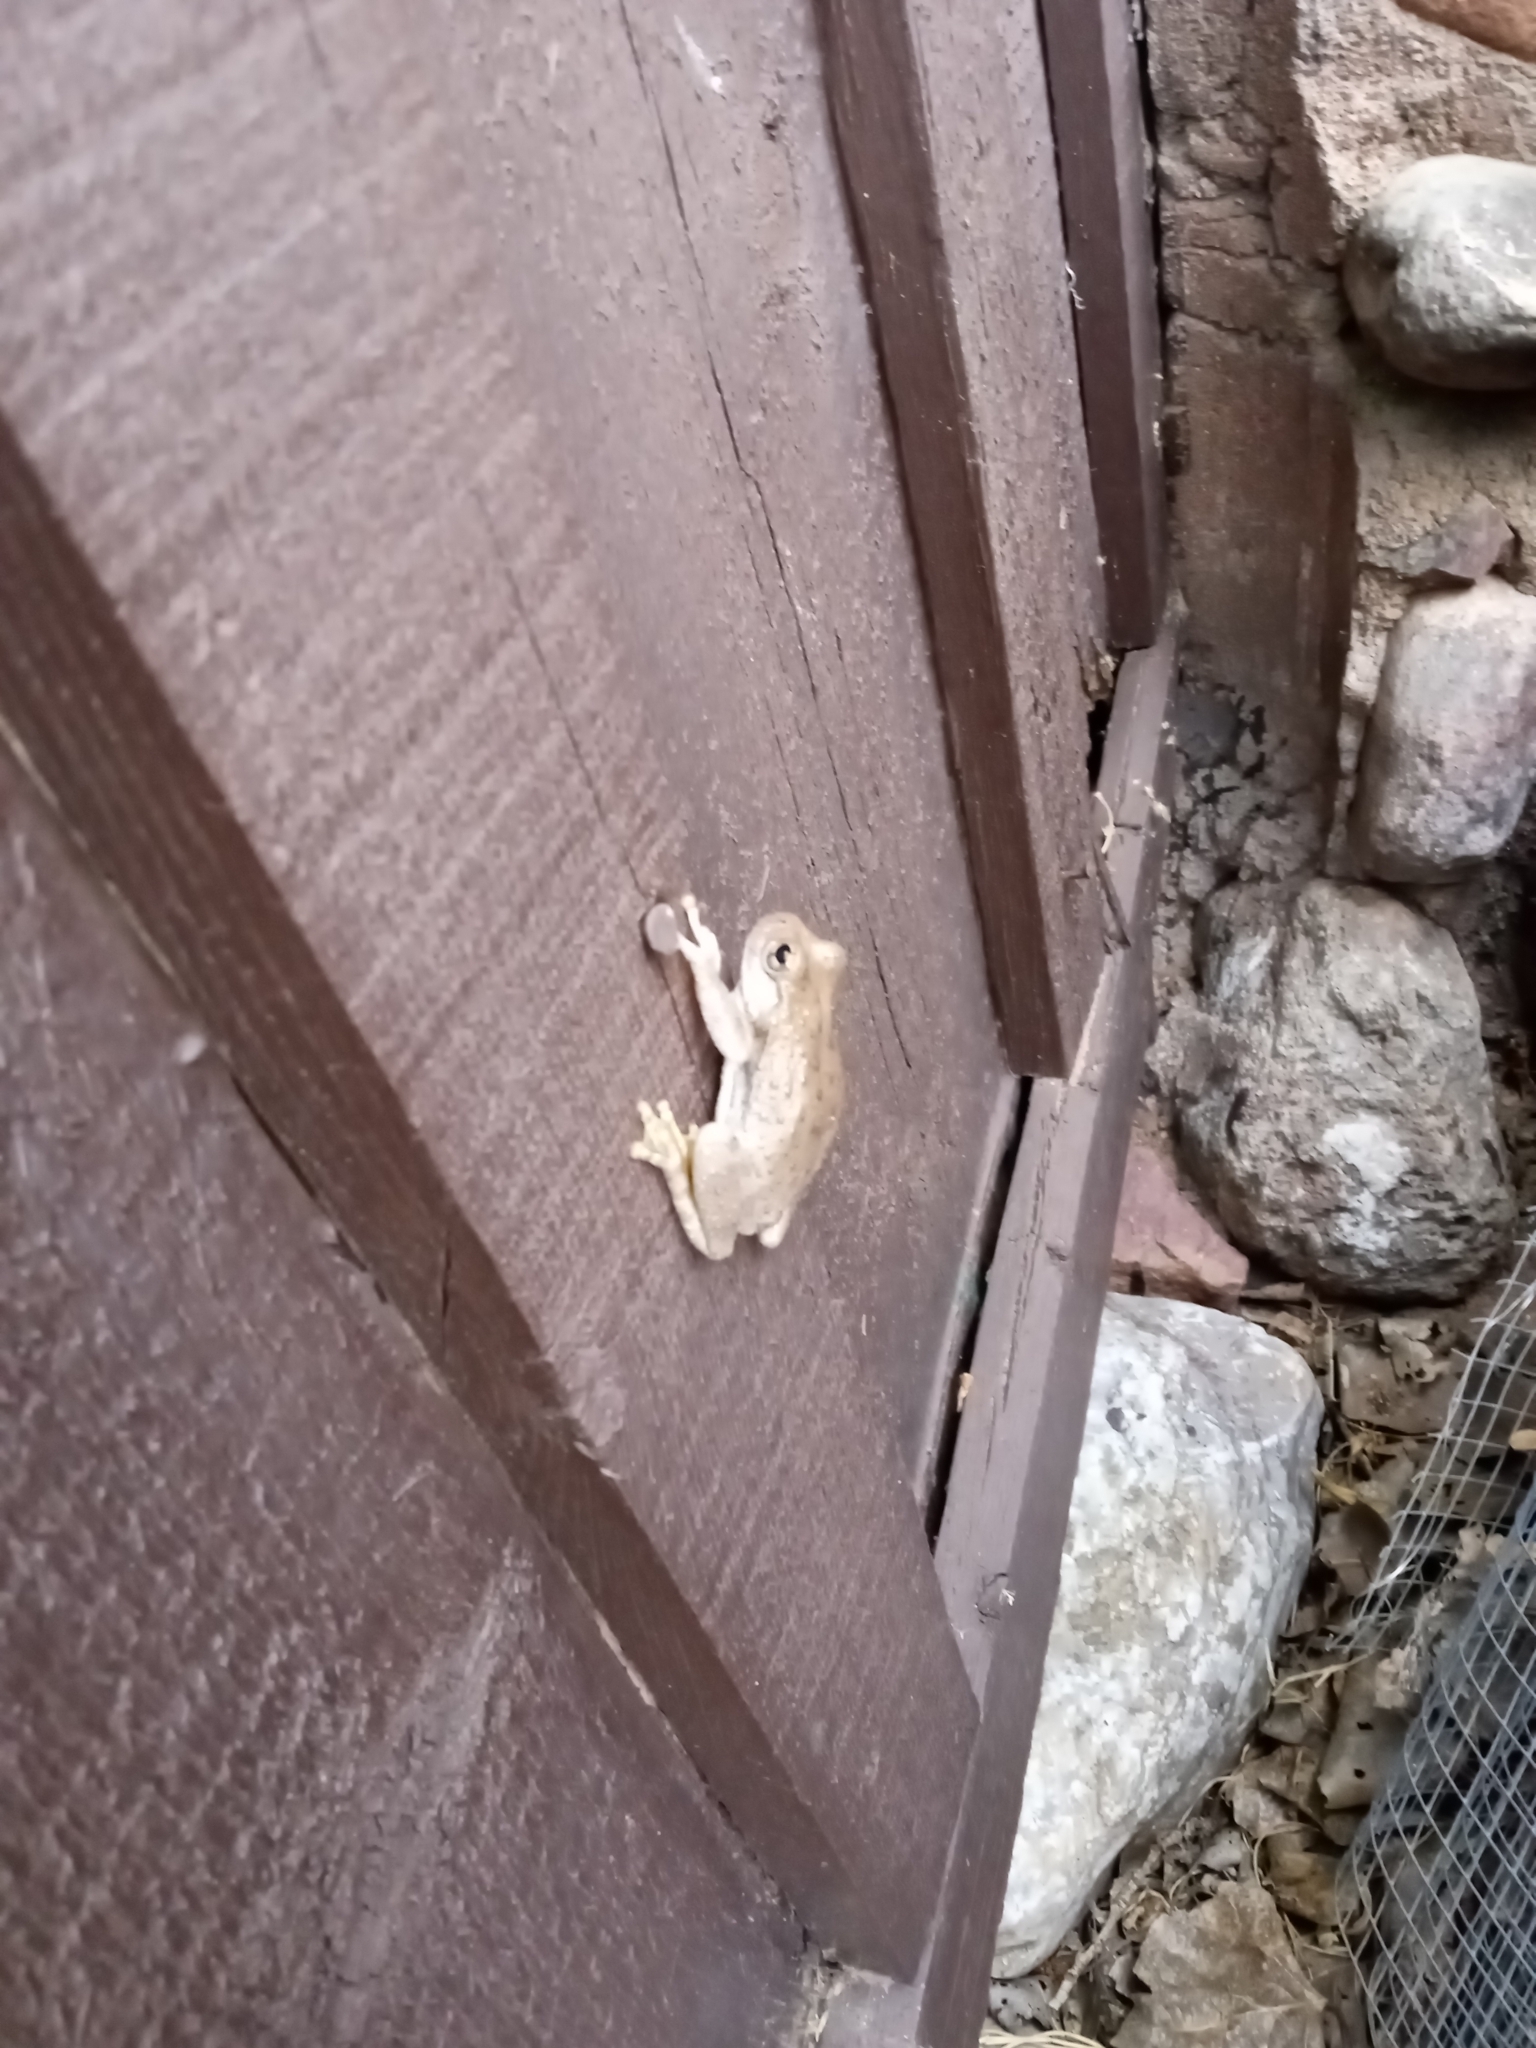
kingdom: Animalia
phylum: Chordata
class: Amphibia
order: Anura
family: Hylidae
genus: Dryophytes
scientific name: Dryophytes arenicolor
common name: Canyon treefrog
